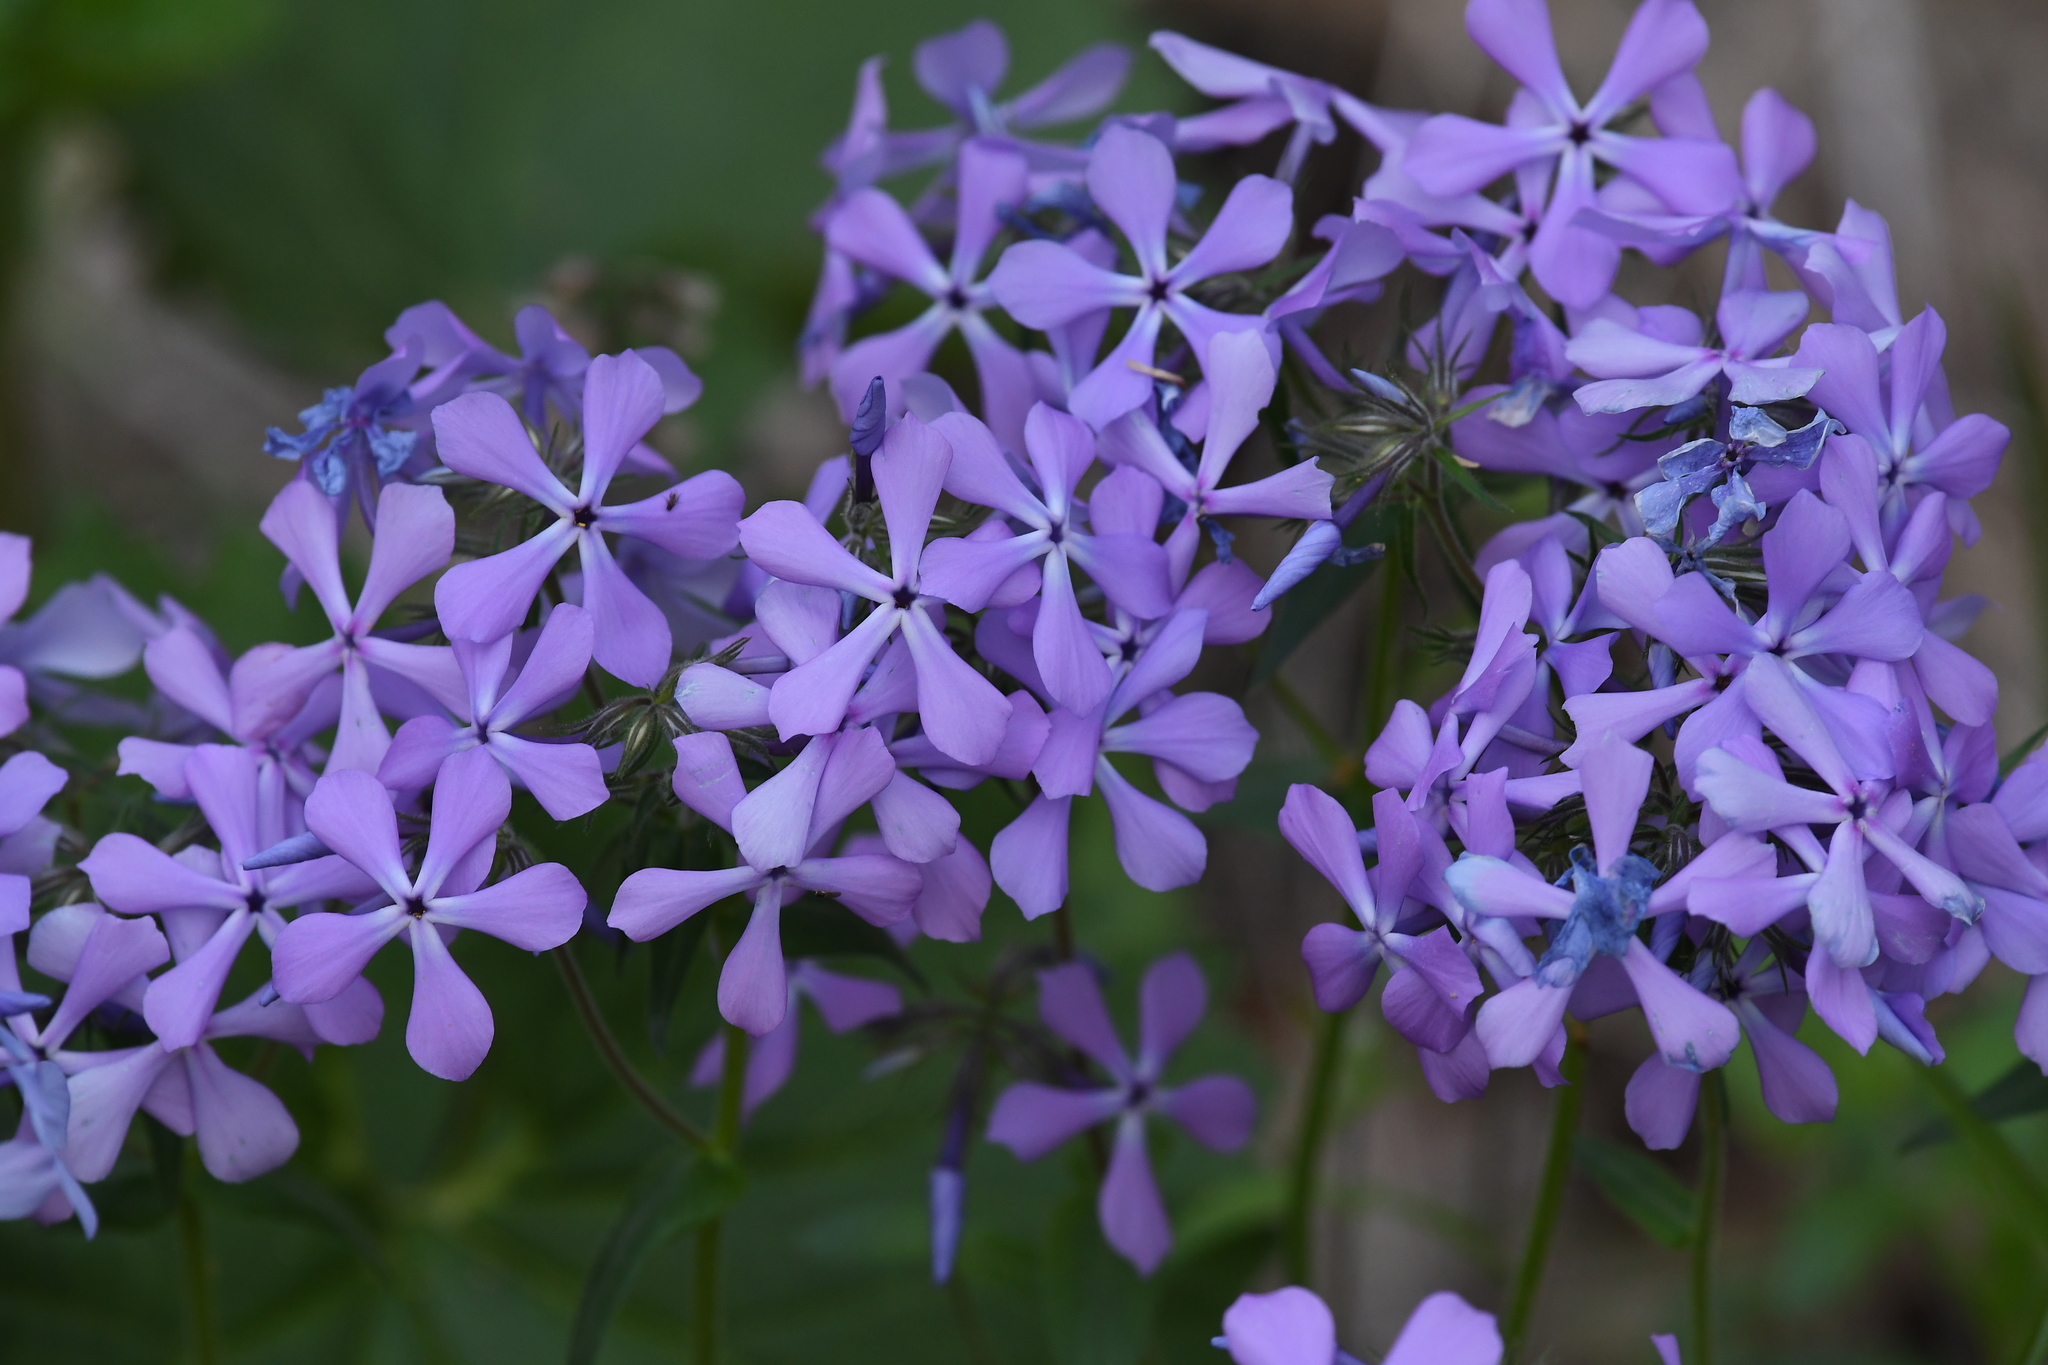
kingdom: Plantae
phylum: Tracheophyta
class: Magnoliopsida
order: Ericales
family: Polemoniaceae
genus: Phlox
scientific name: Phlox divaricata
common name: Blue phlox
